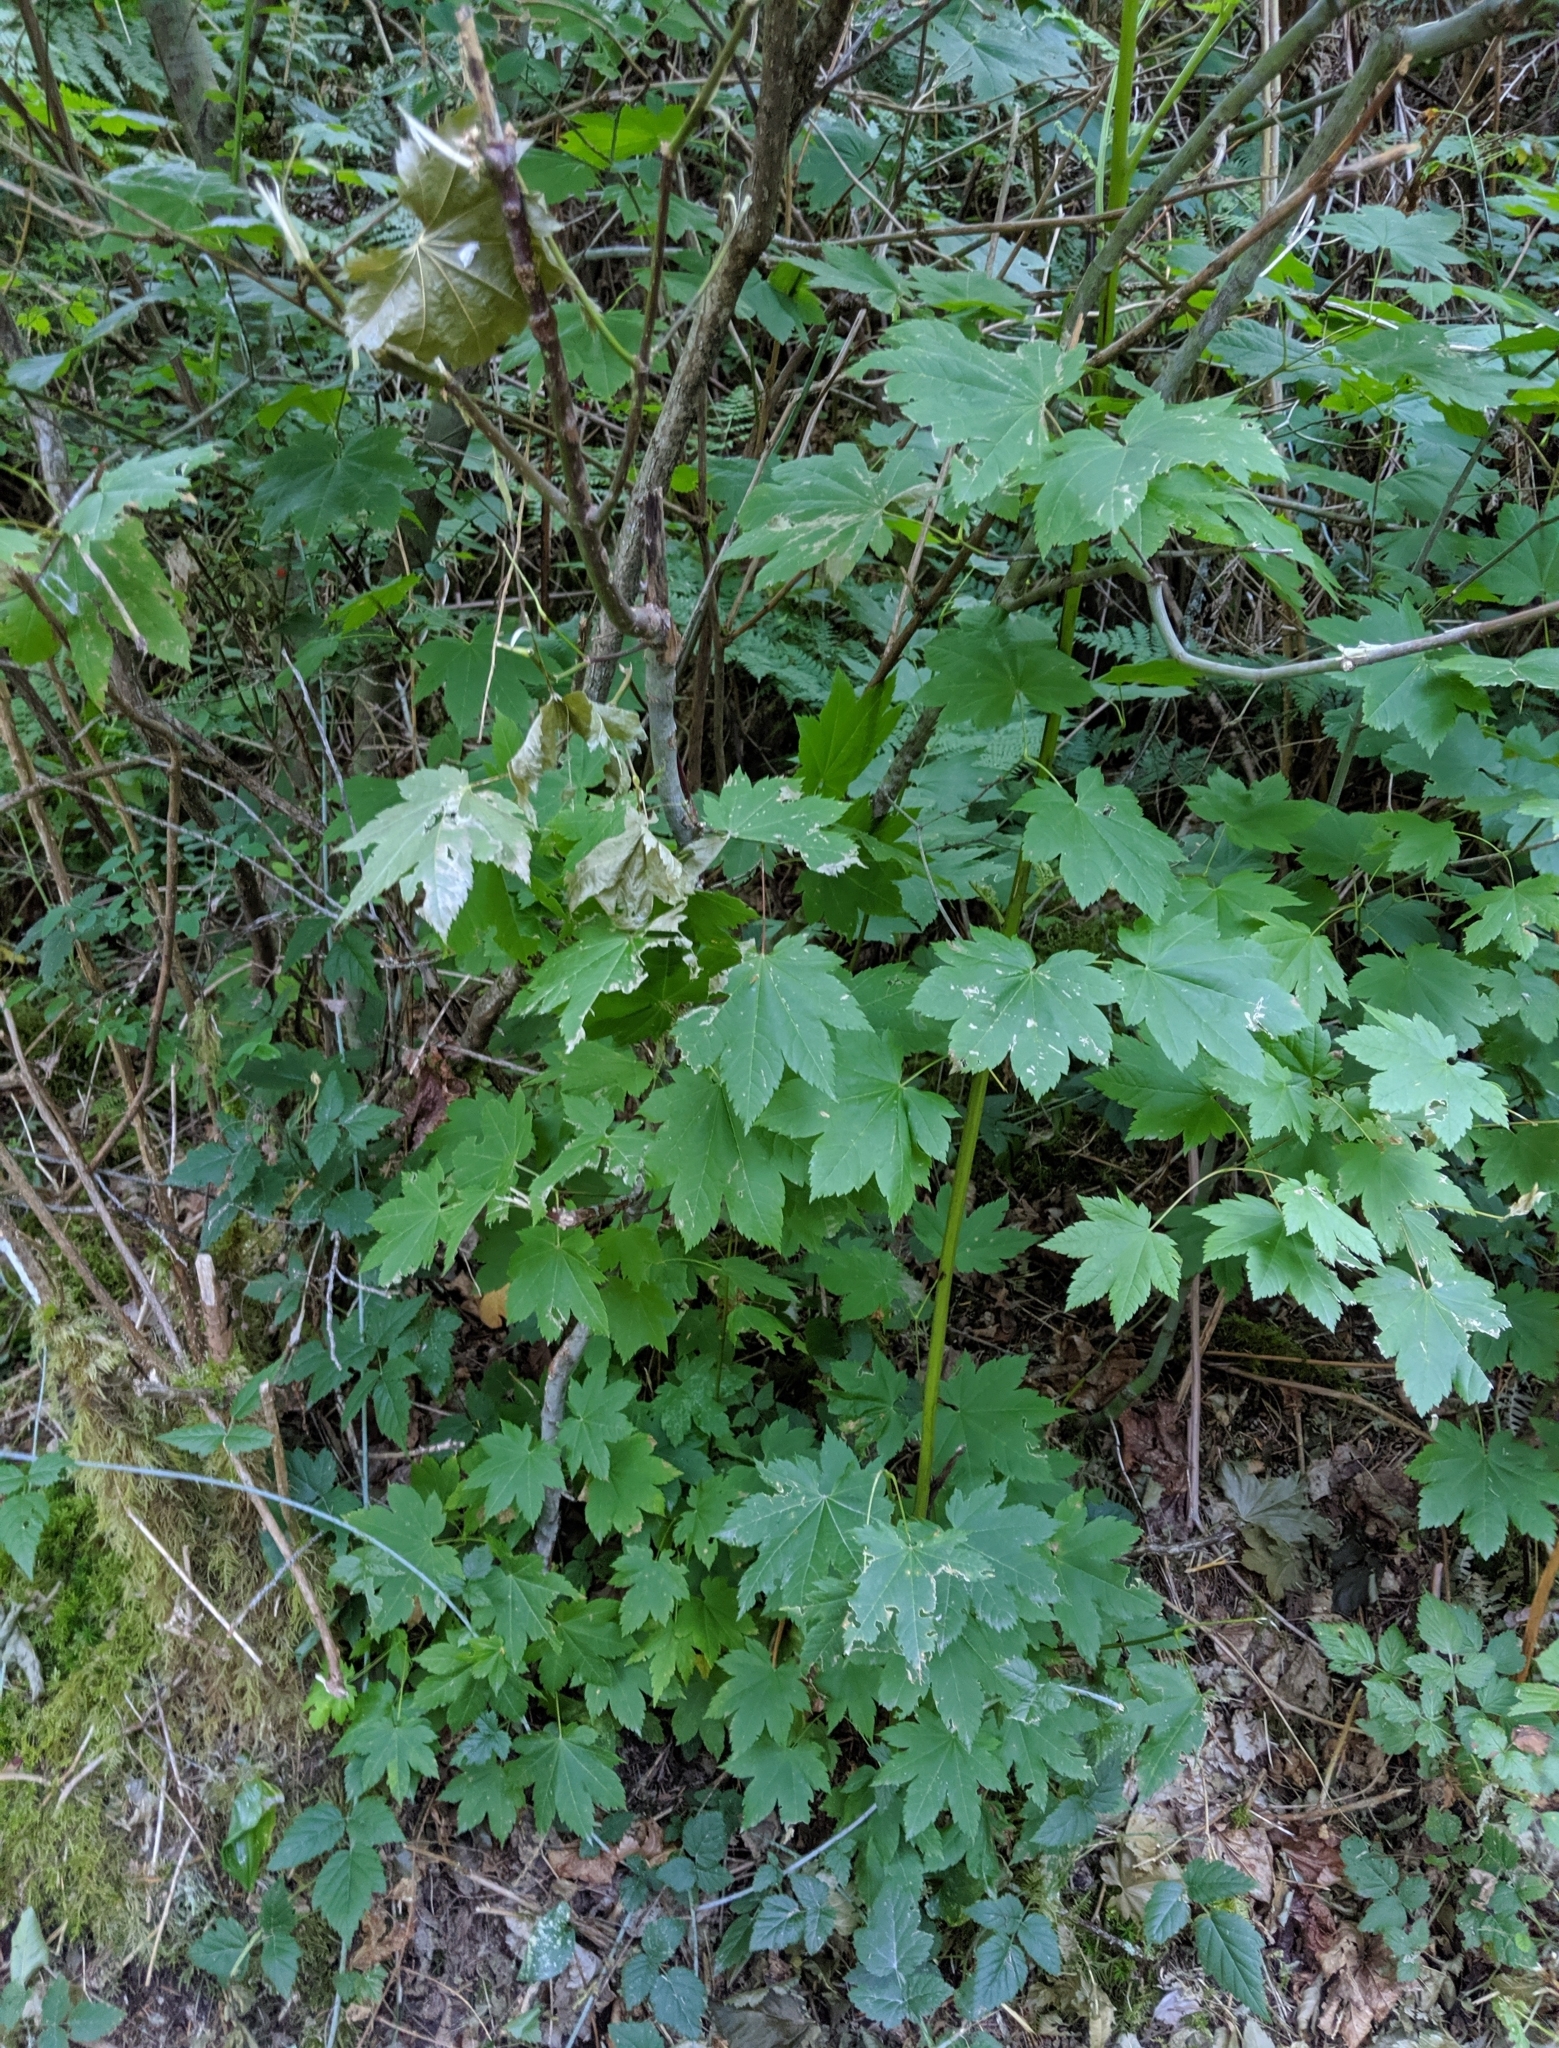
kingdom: Plantae
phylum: Tracheophyta
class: Magnoliopsida
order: Sapindales
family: Sapindaceae
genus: Acer
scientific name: Acer circinatum
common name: Vine maple
